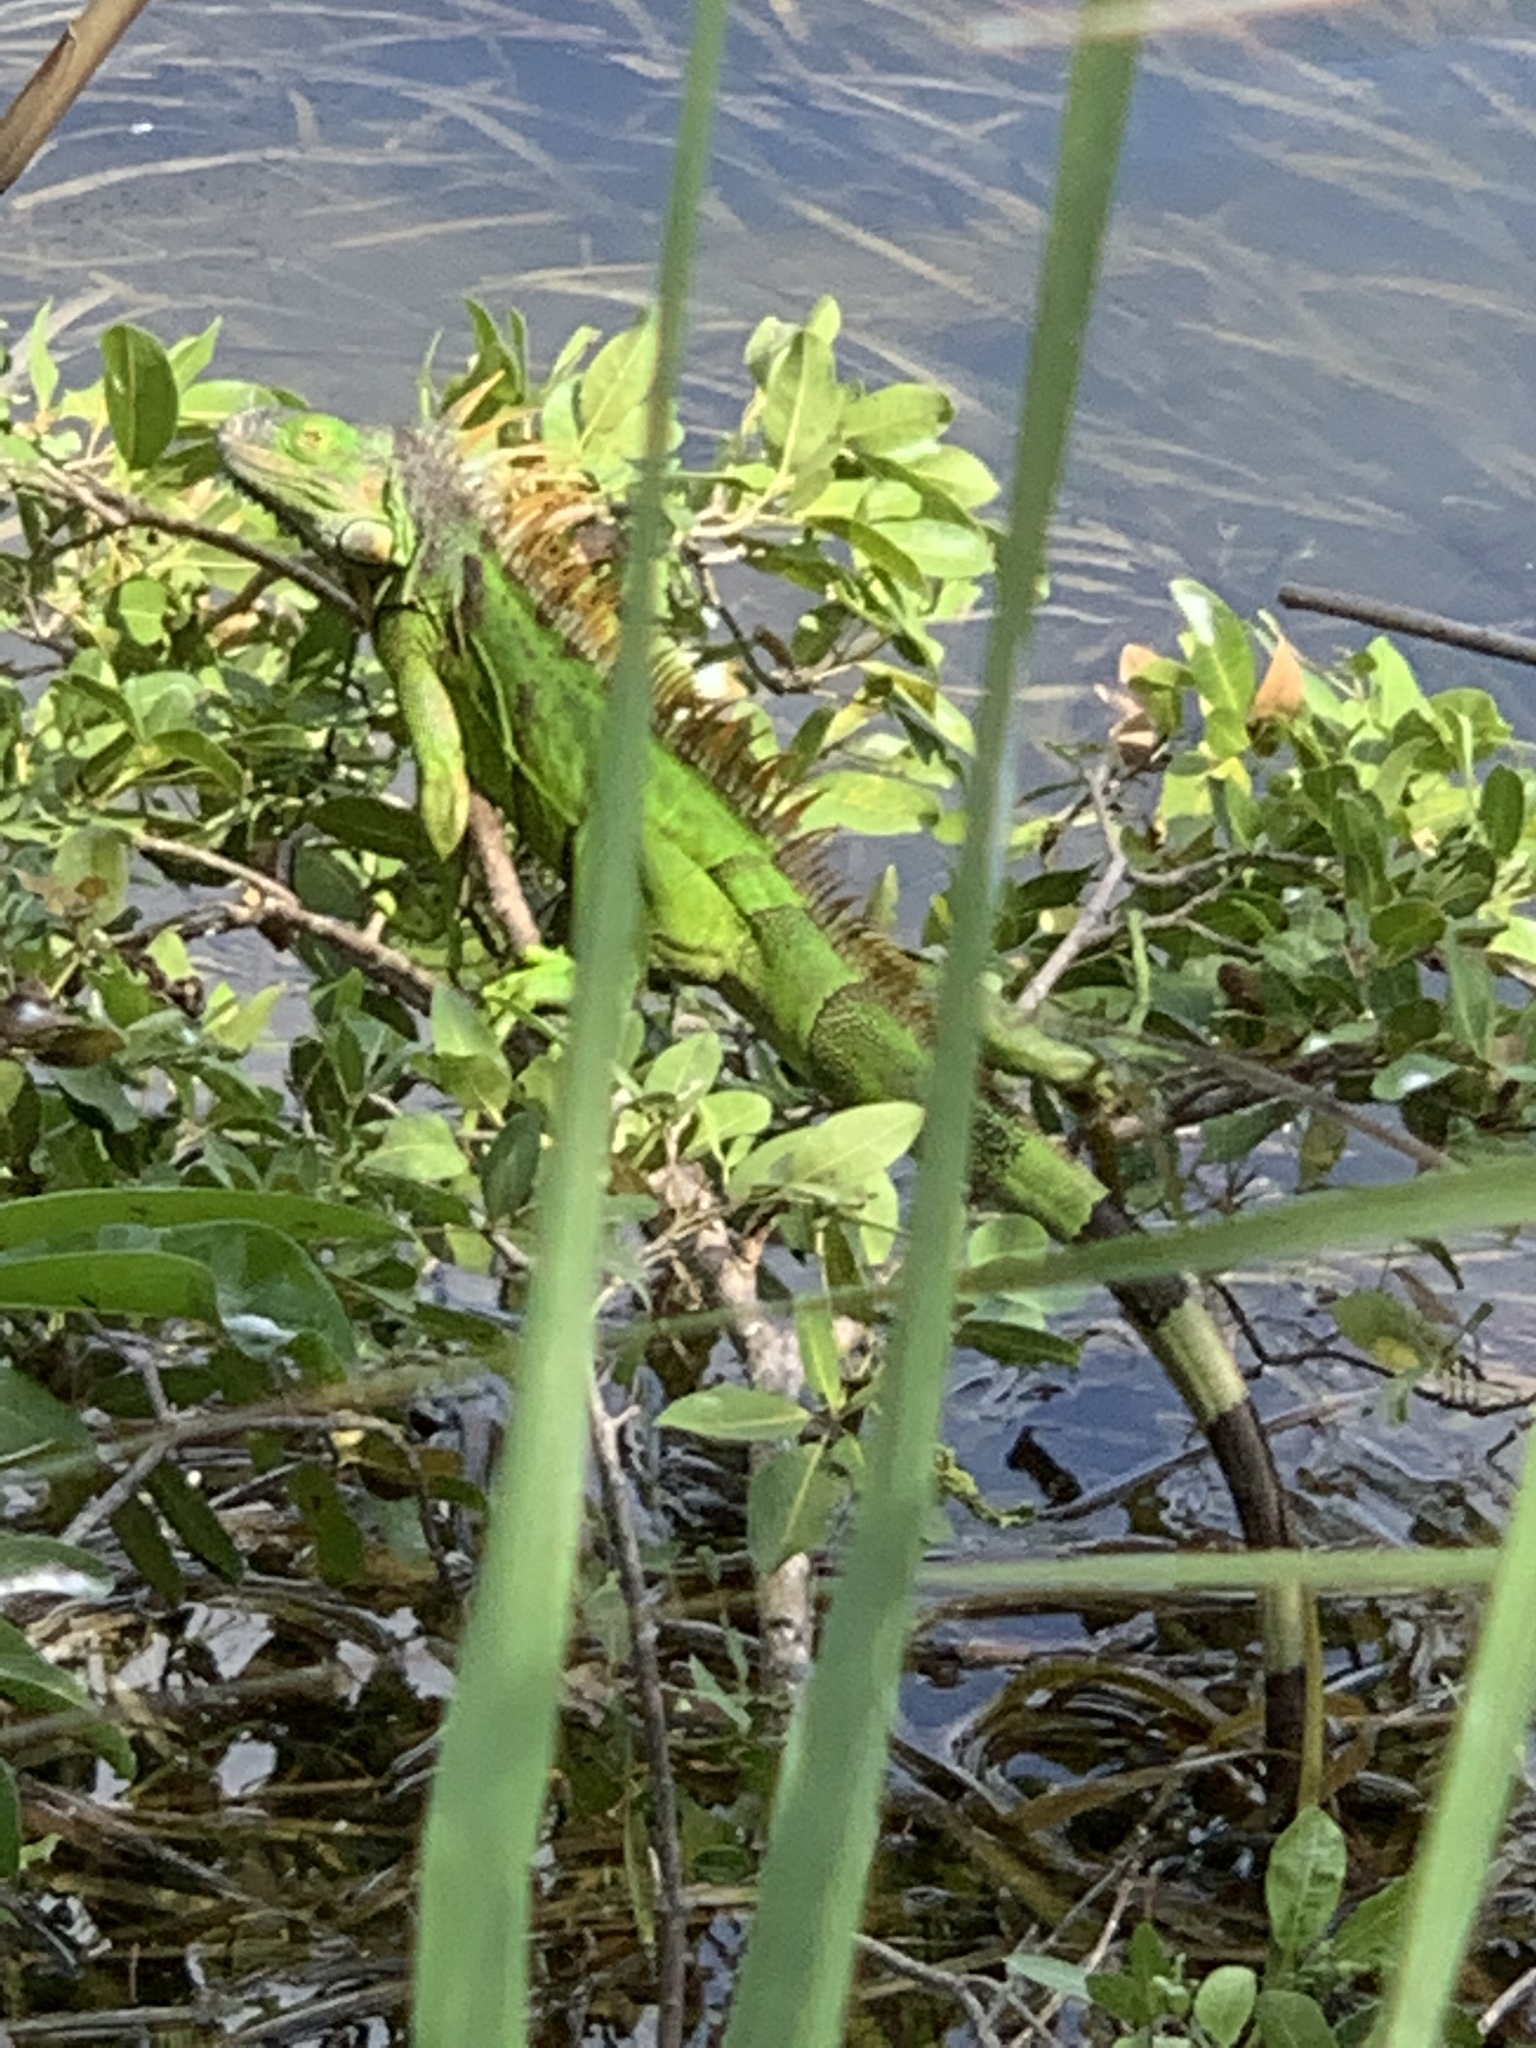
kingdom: Animalia
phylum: Chordata
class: Squamata
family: Iguanidae
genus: Iguana
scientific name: Iguana iguana
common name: Green iguana
